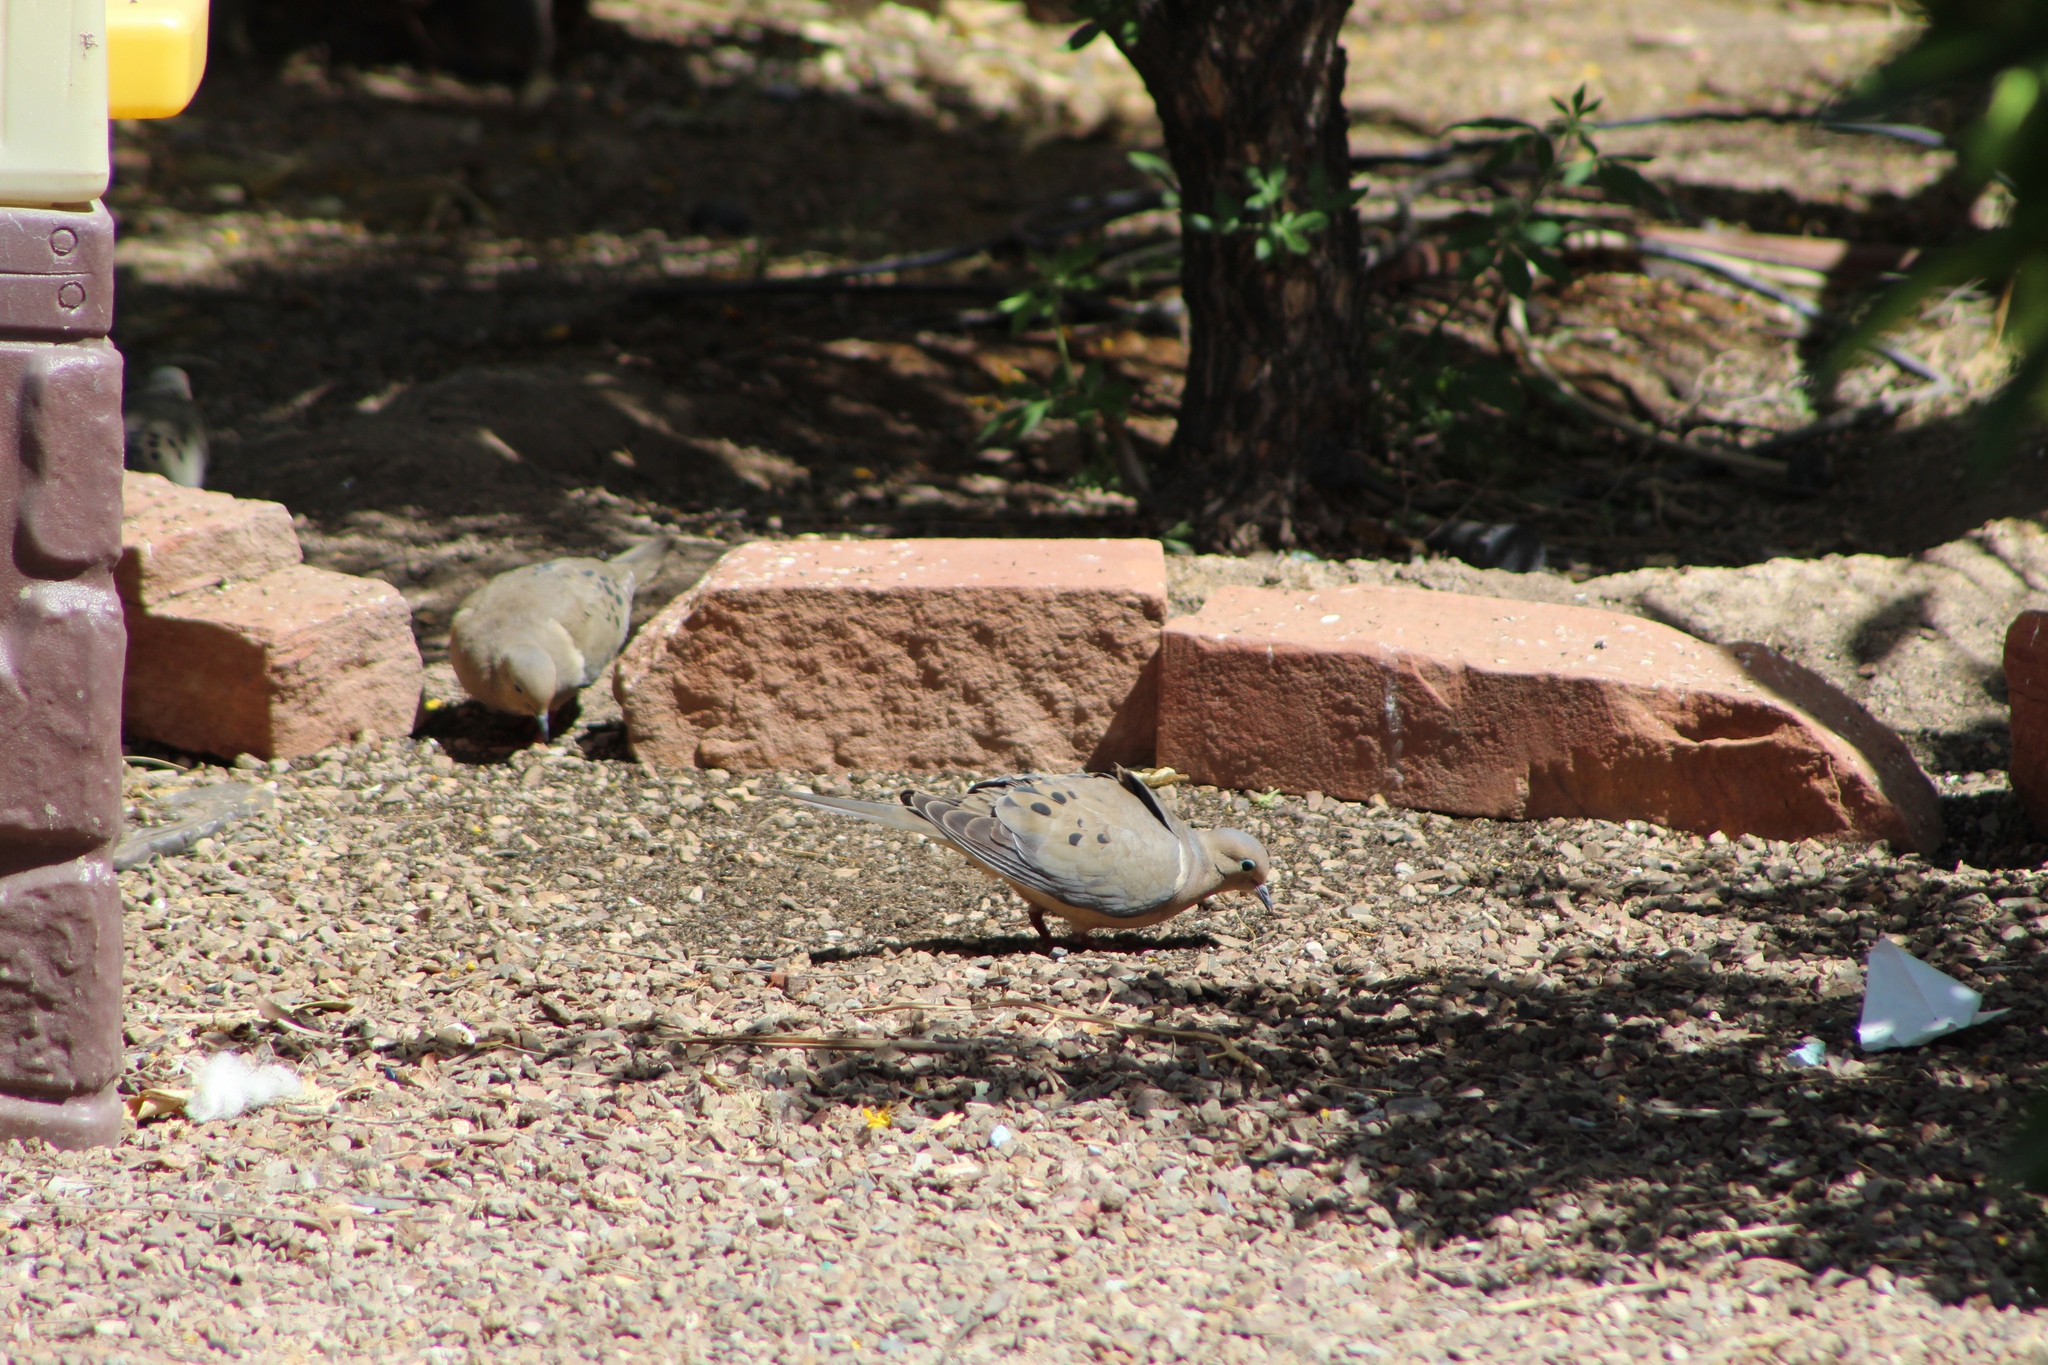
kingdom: Animalia
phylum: Chordata
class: Aves
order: Columbiformes
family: Columbidae
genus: Zenaida
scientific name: Zenaida macroura
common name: Mourning dove
